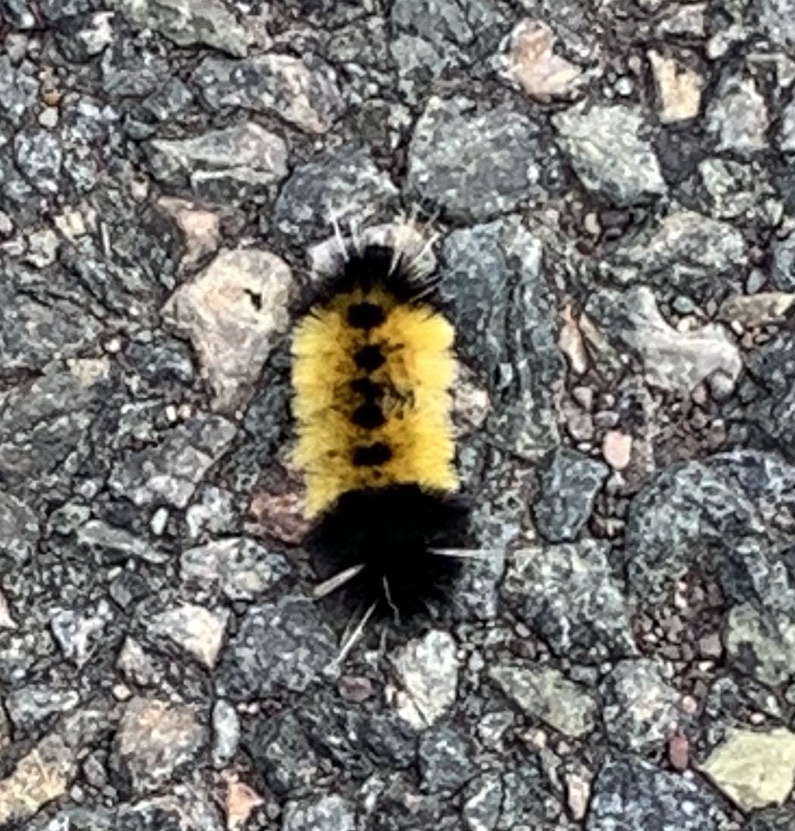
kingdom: Animalia
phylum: Arthropoda
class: Insecta
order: Lepidoptera
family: Erebidae
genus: Lophocampa
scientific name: Lophocampa maculata
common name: Spotted tussock moth
